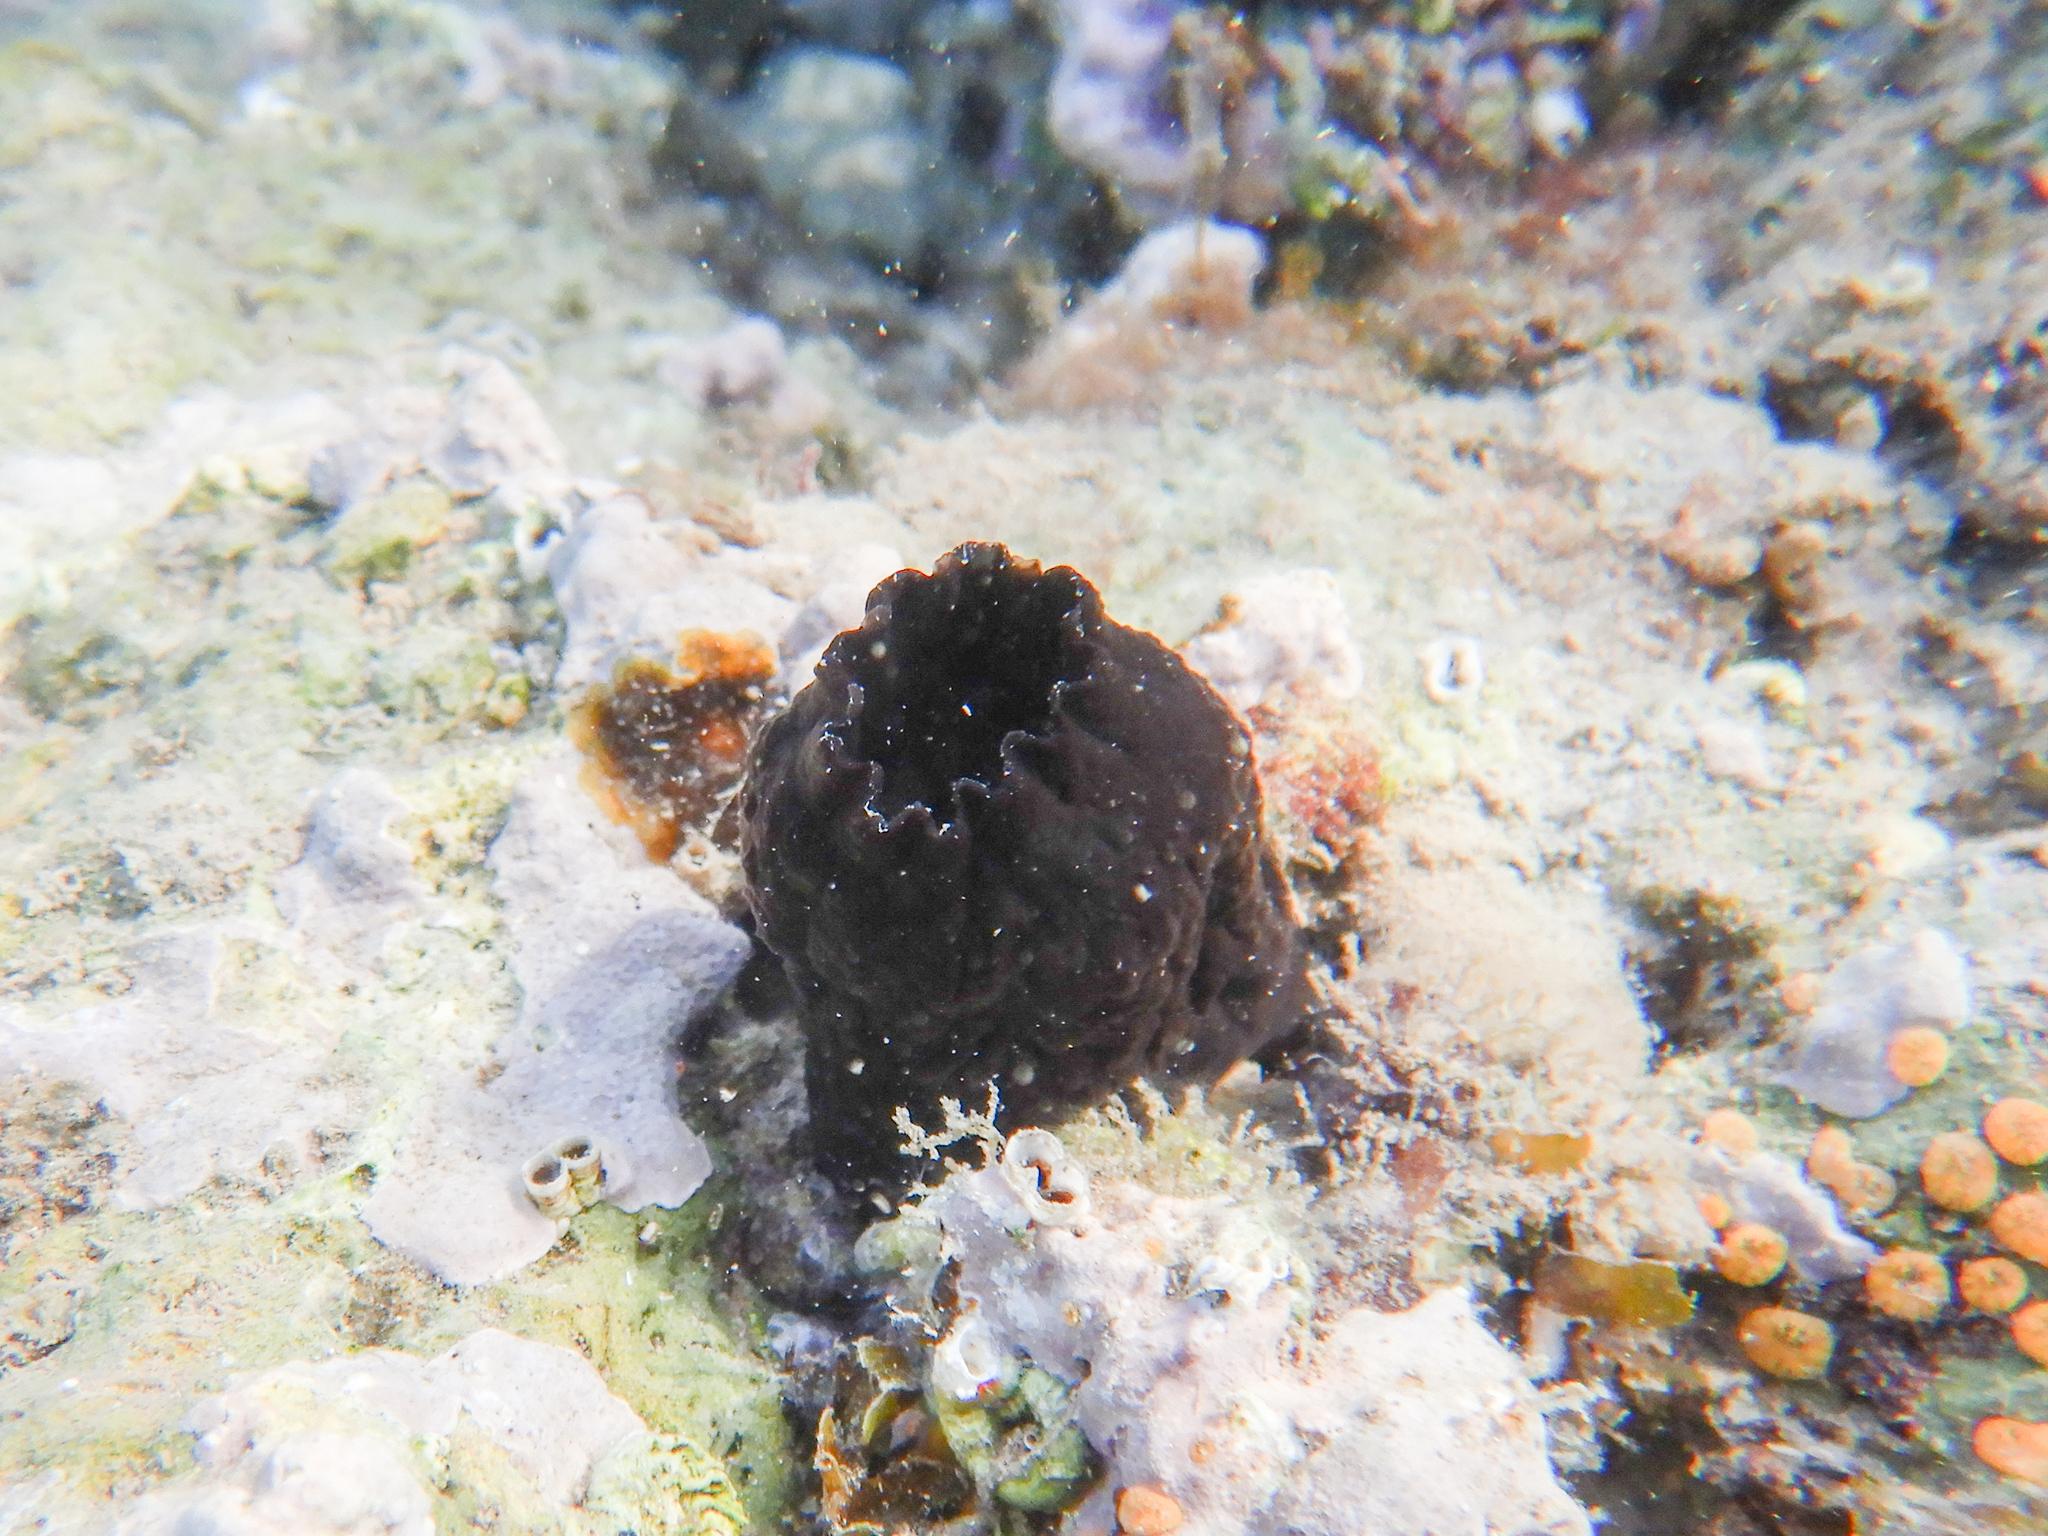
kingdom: Animalia
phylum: Chordata
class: Ascidiacea
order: Phlebobranchia
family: Ascidiidae
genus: Phallusia
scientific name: Phallusia fumigata
